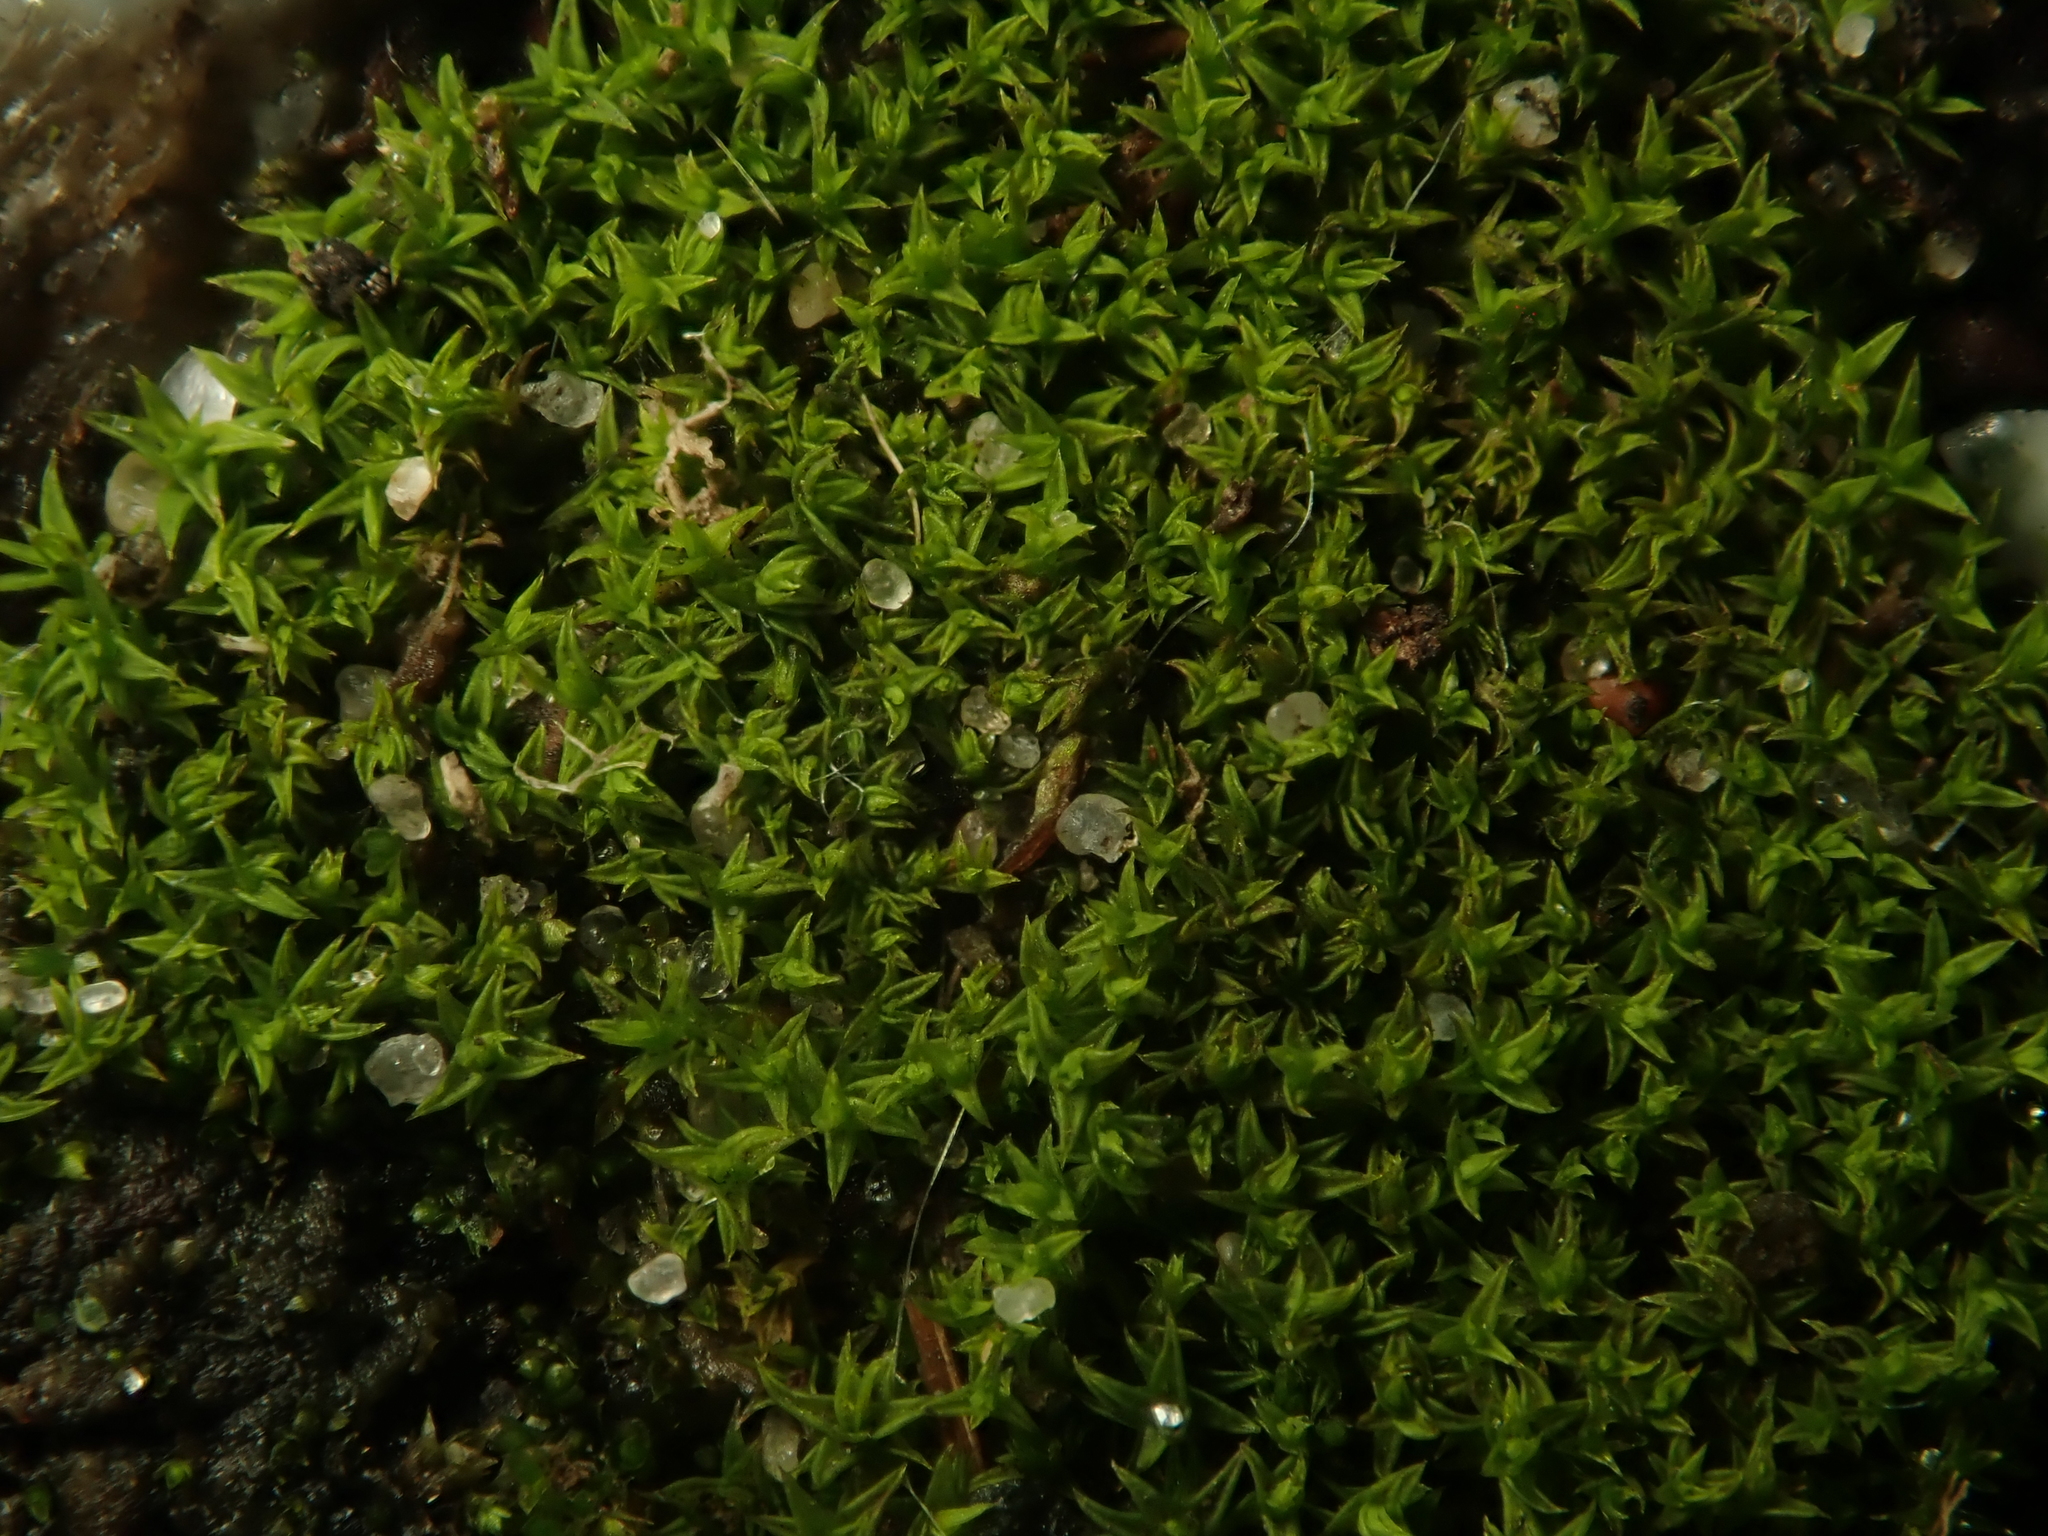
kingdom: Plantae
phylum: Bryophyta
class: Bryopsida
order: Pottiales
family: Pottiaceae
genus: Pseudocrossidium
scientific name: Pseudocrossidium hornschuchianum
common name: Hornschuch's beard-moss
